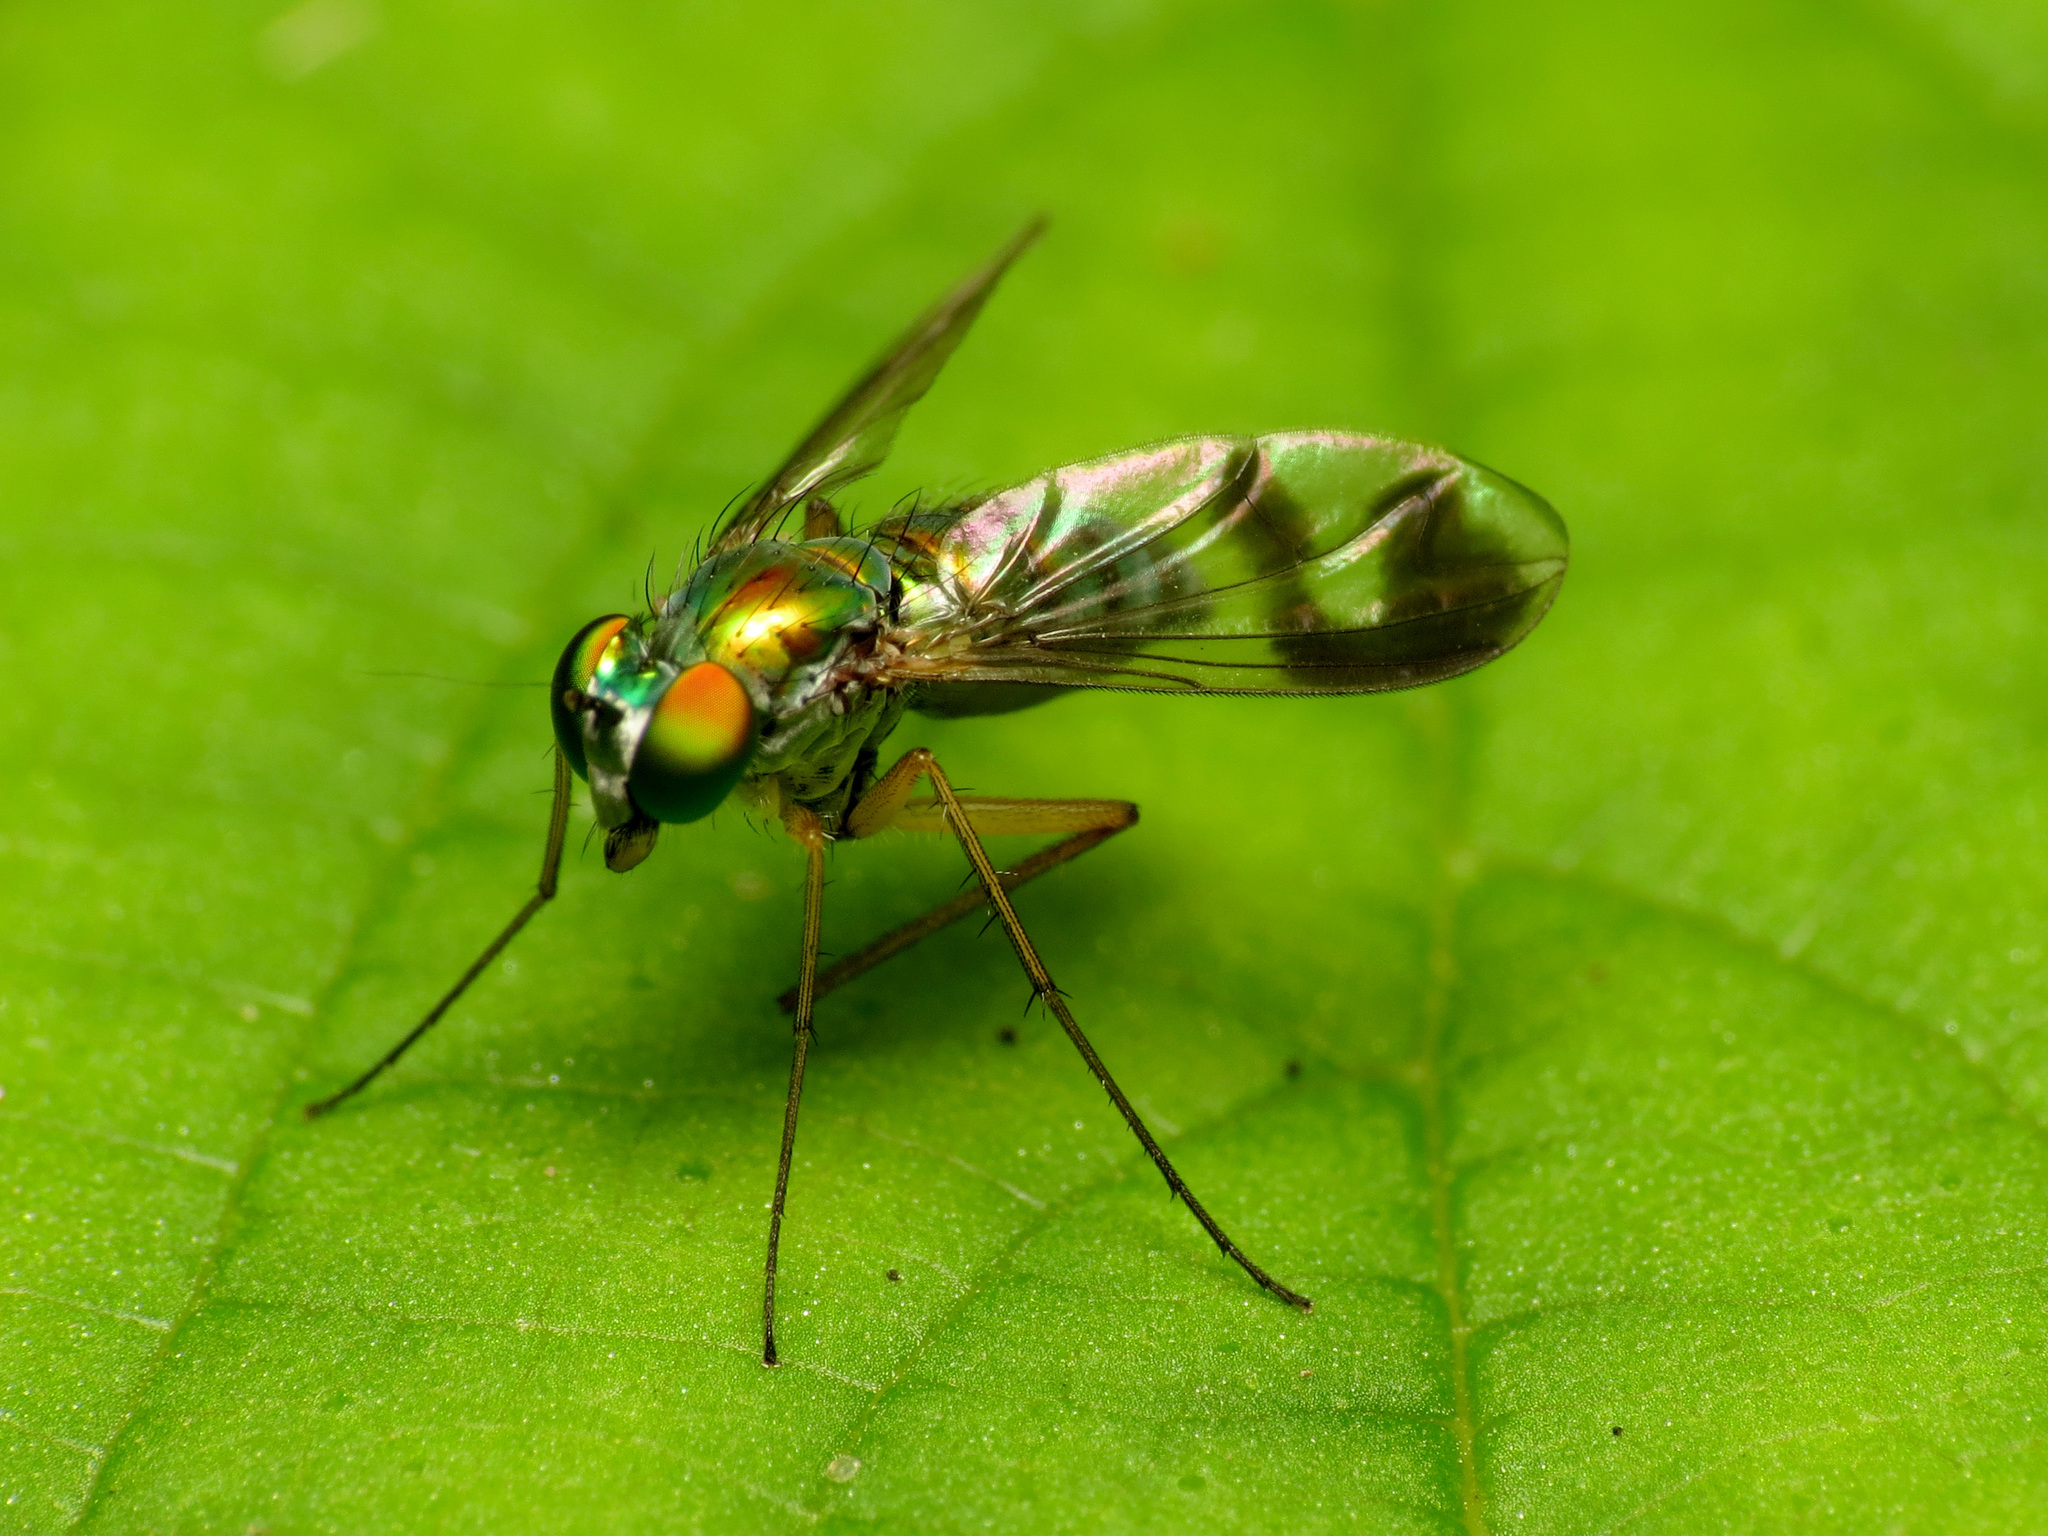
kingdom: Animalia
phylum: Arthropoda
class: Insecta
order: Diptera
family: Dolichopodidae
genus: Condylostylus
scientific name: Condylostylus
